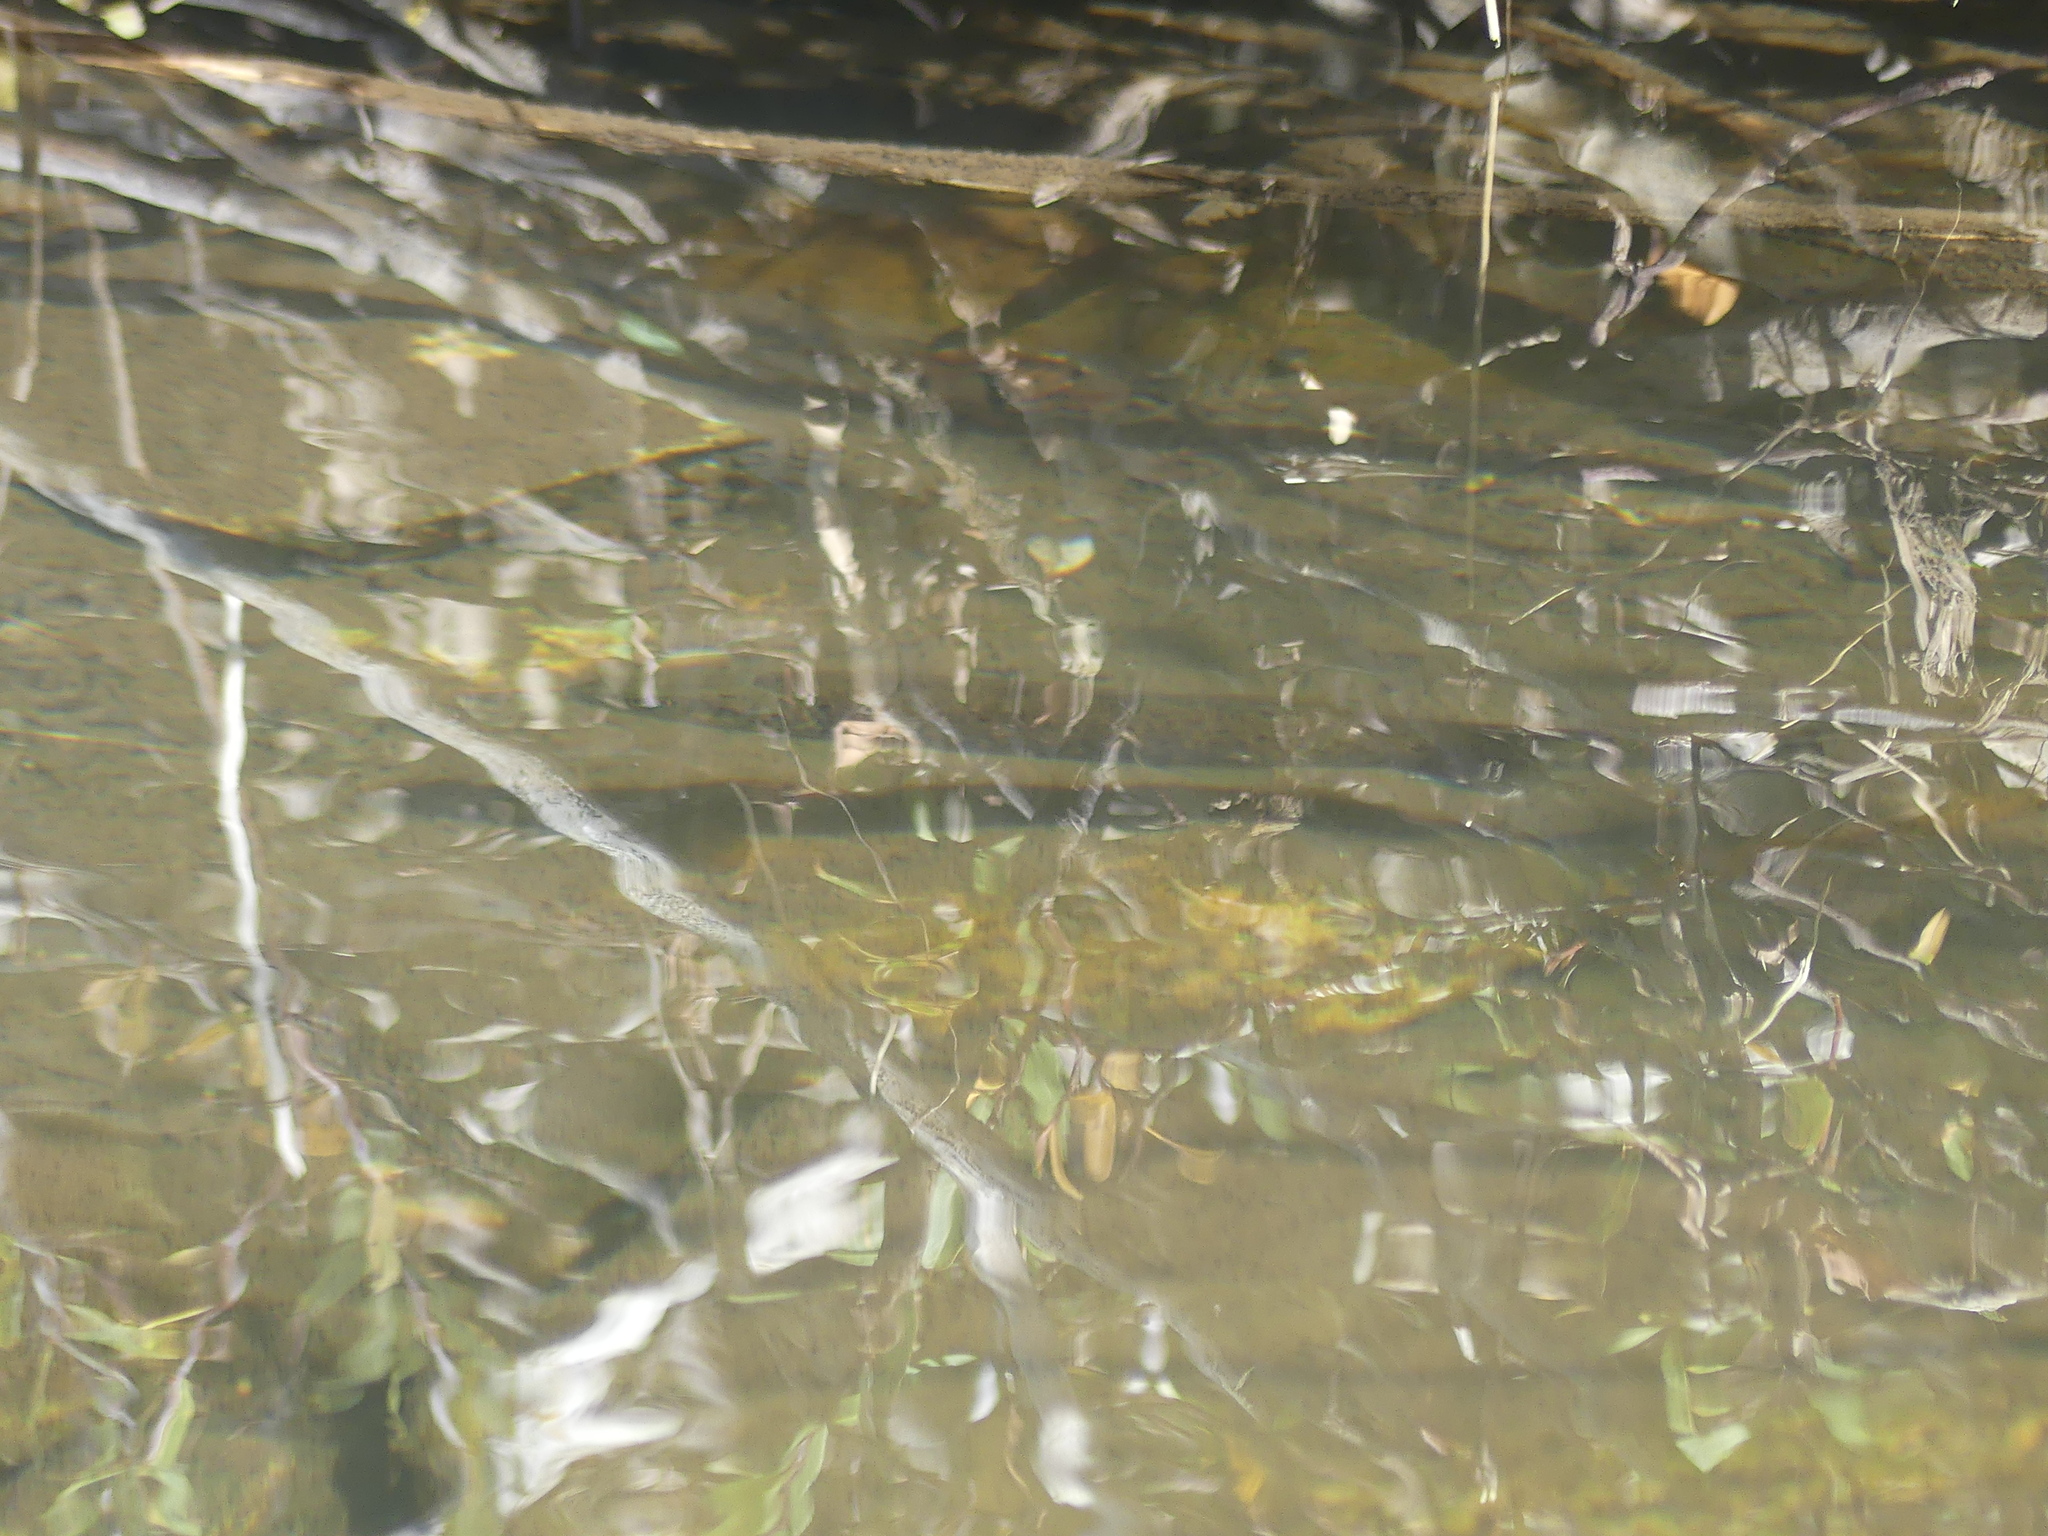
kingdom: Animalia
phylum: Chordata
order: Salmoniformes
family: Salmonidae
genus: Salmo
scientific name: Salmo trutta
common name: Brown trout
